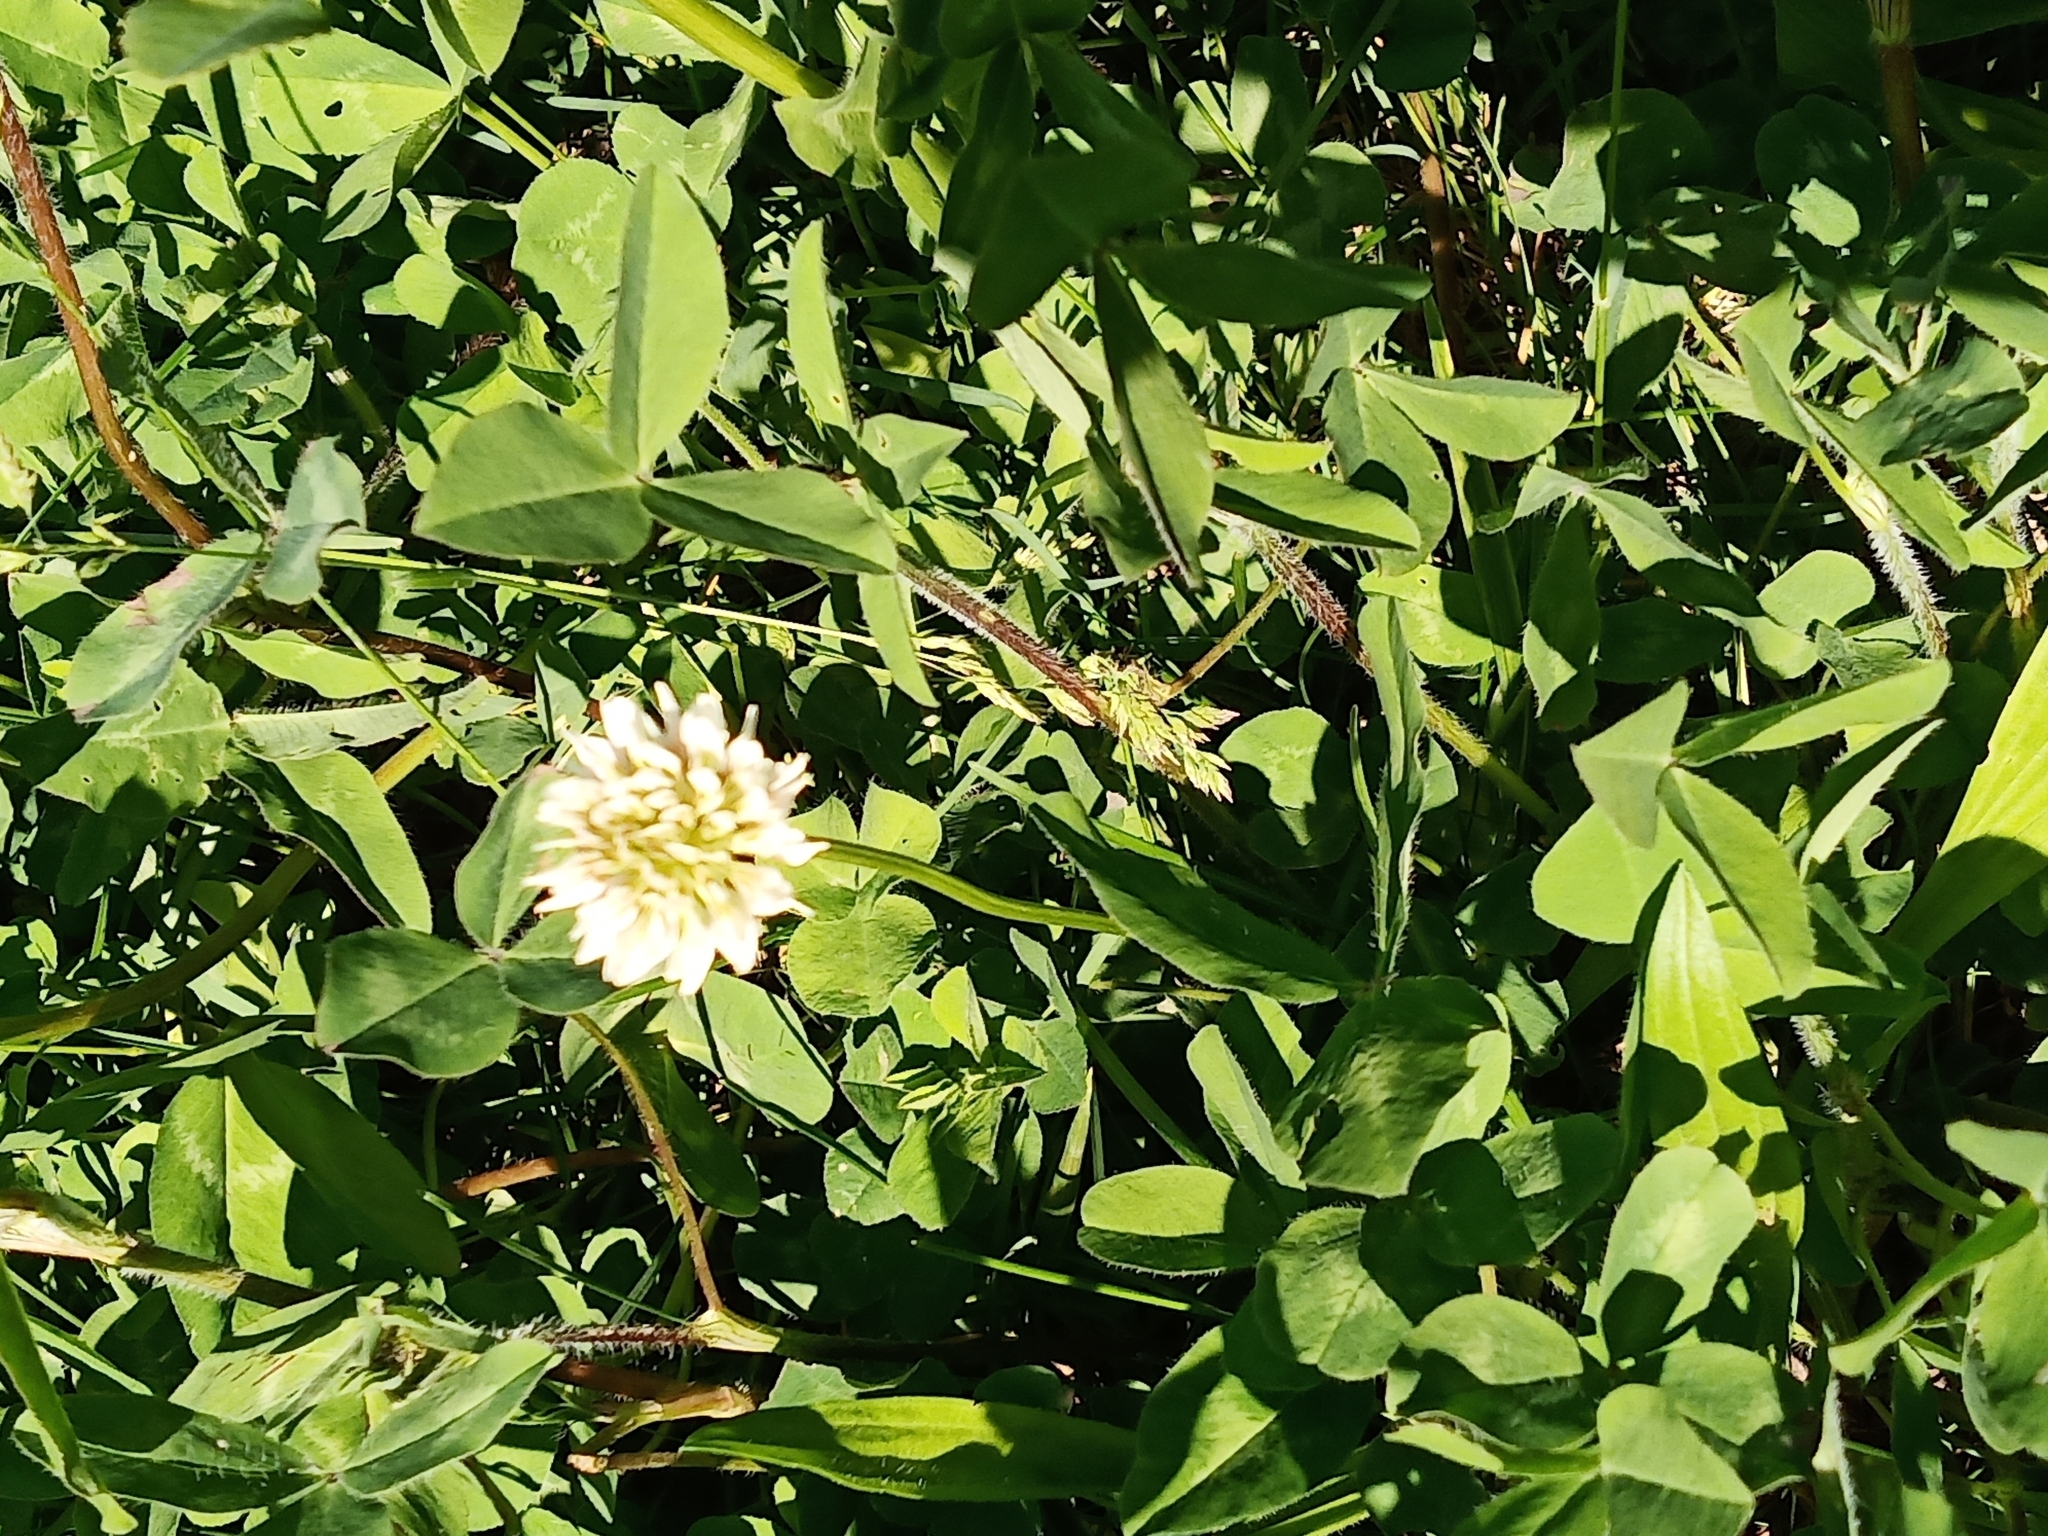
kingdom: Plantae
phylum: Tracheophyta
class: Magnoliopsida
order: Fabales
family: Fabaceae
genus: Trifolium
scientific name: Trifolium repens
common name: White clover
